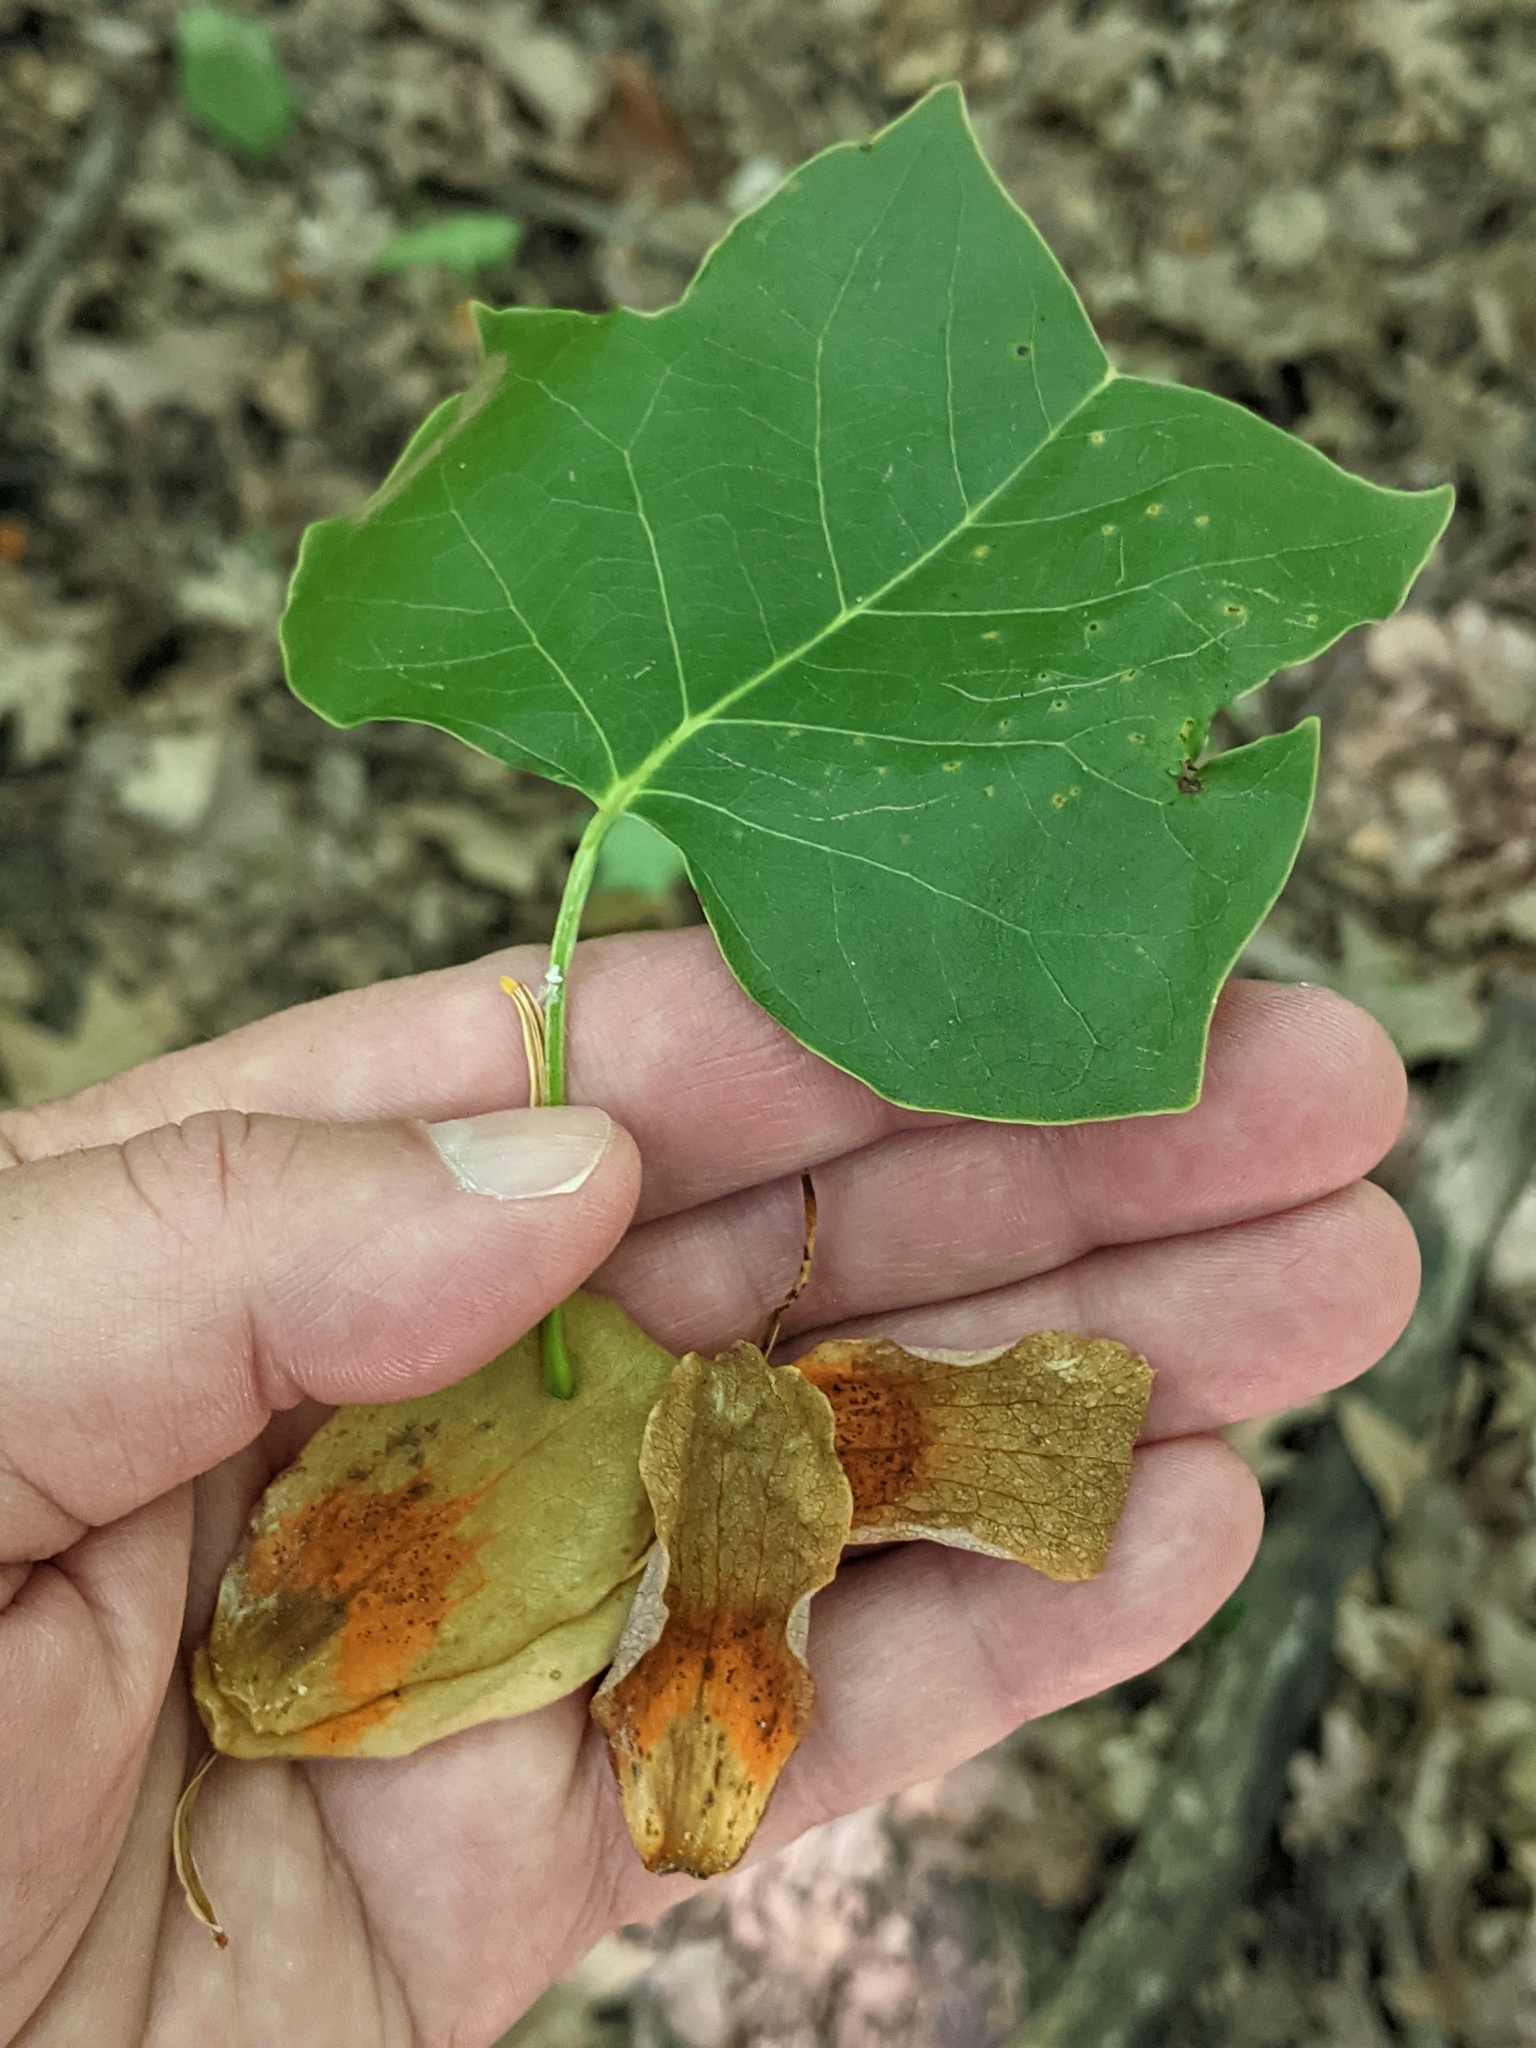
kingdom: Plantae
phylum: Tracheophyta
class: Magnoliopsida
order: Magnoliales
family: Magnoliaceae
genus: Liriodendron
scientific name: Liriodendron tulipifera
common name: Tulip tree
